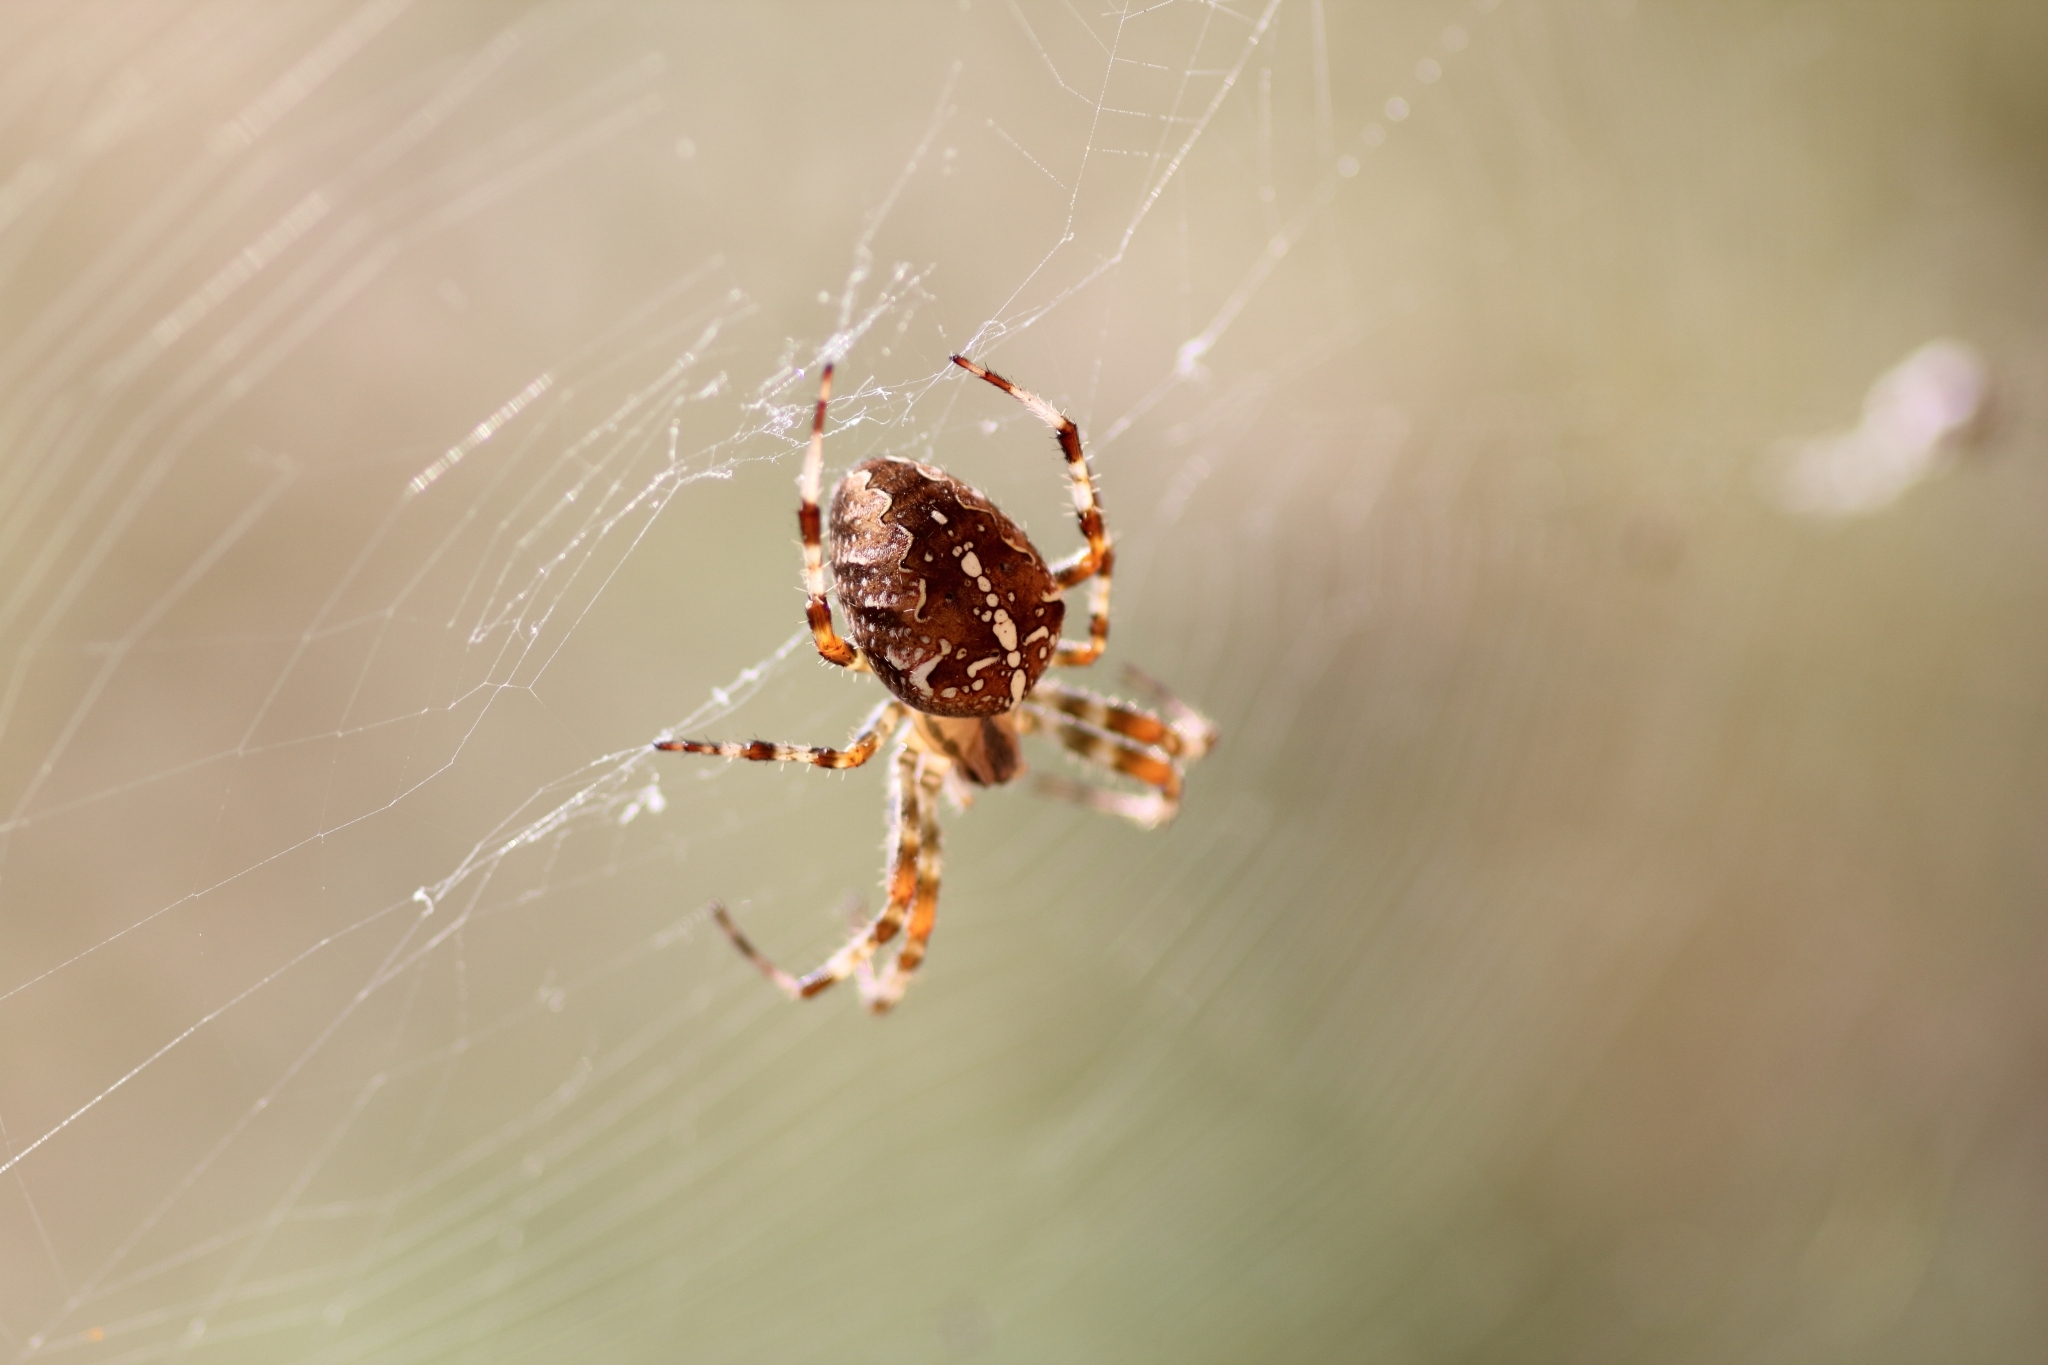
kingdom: Animalia
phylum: Arthropoda
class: Arachnida
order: Araneae
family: Araneidae
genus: Araneus
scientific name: Araneus diadematus
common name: Cross orbweaver
